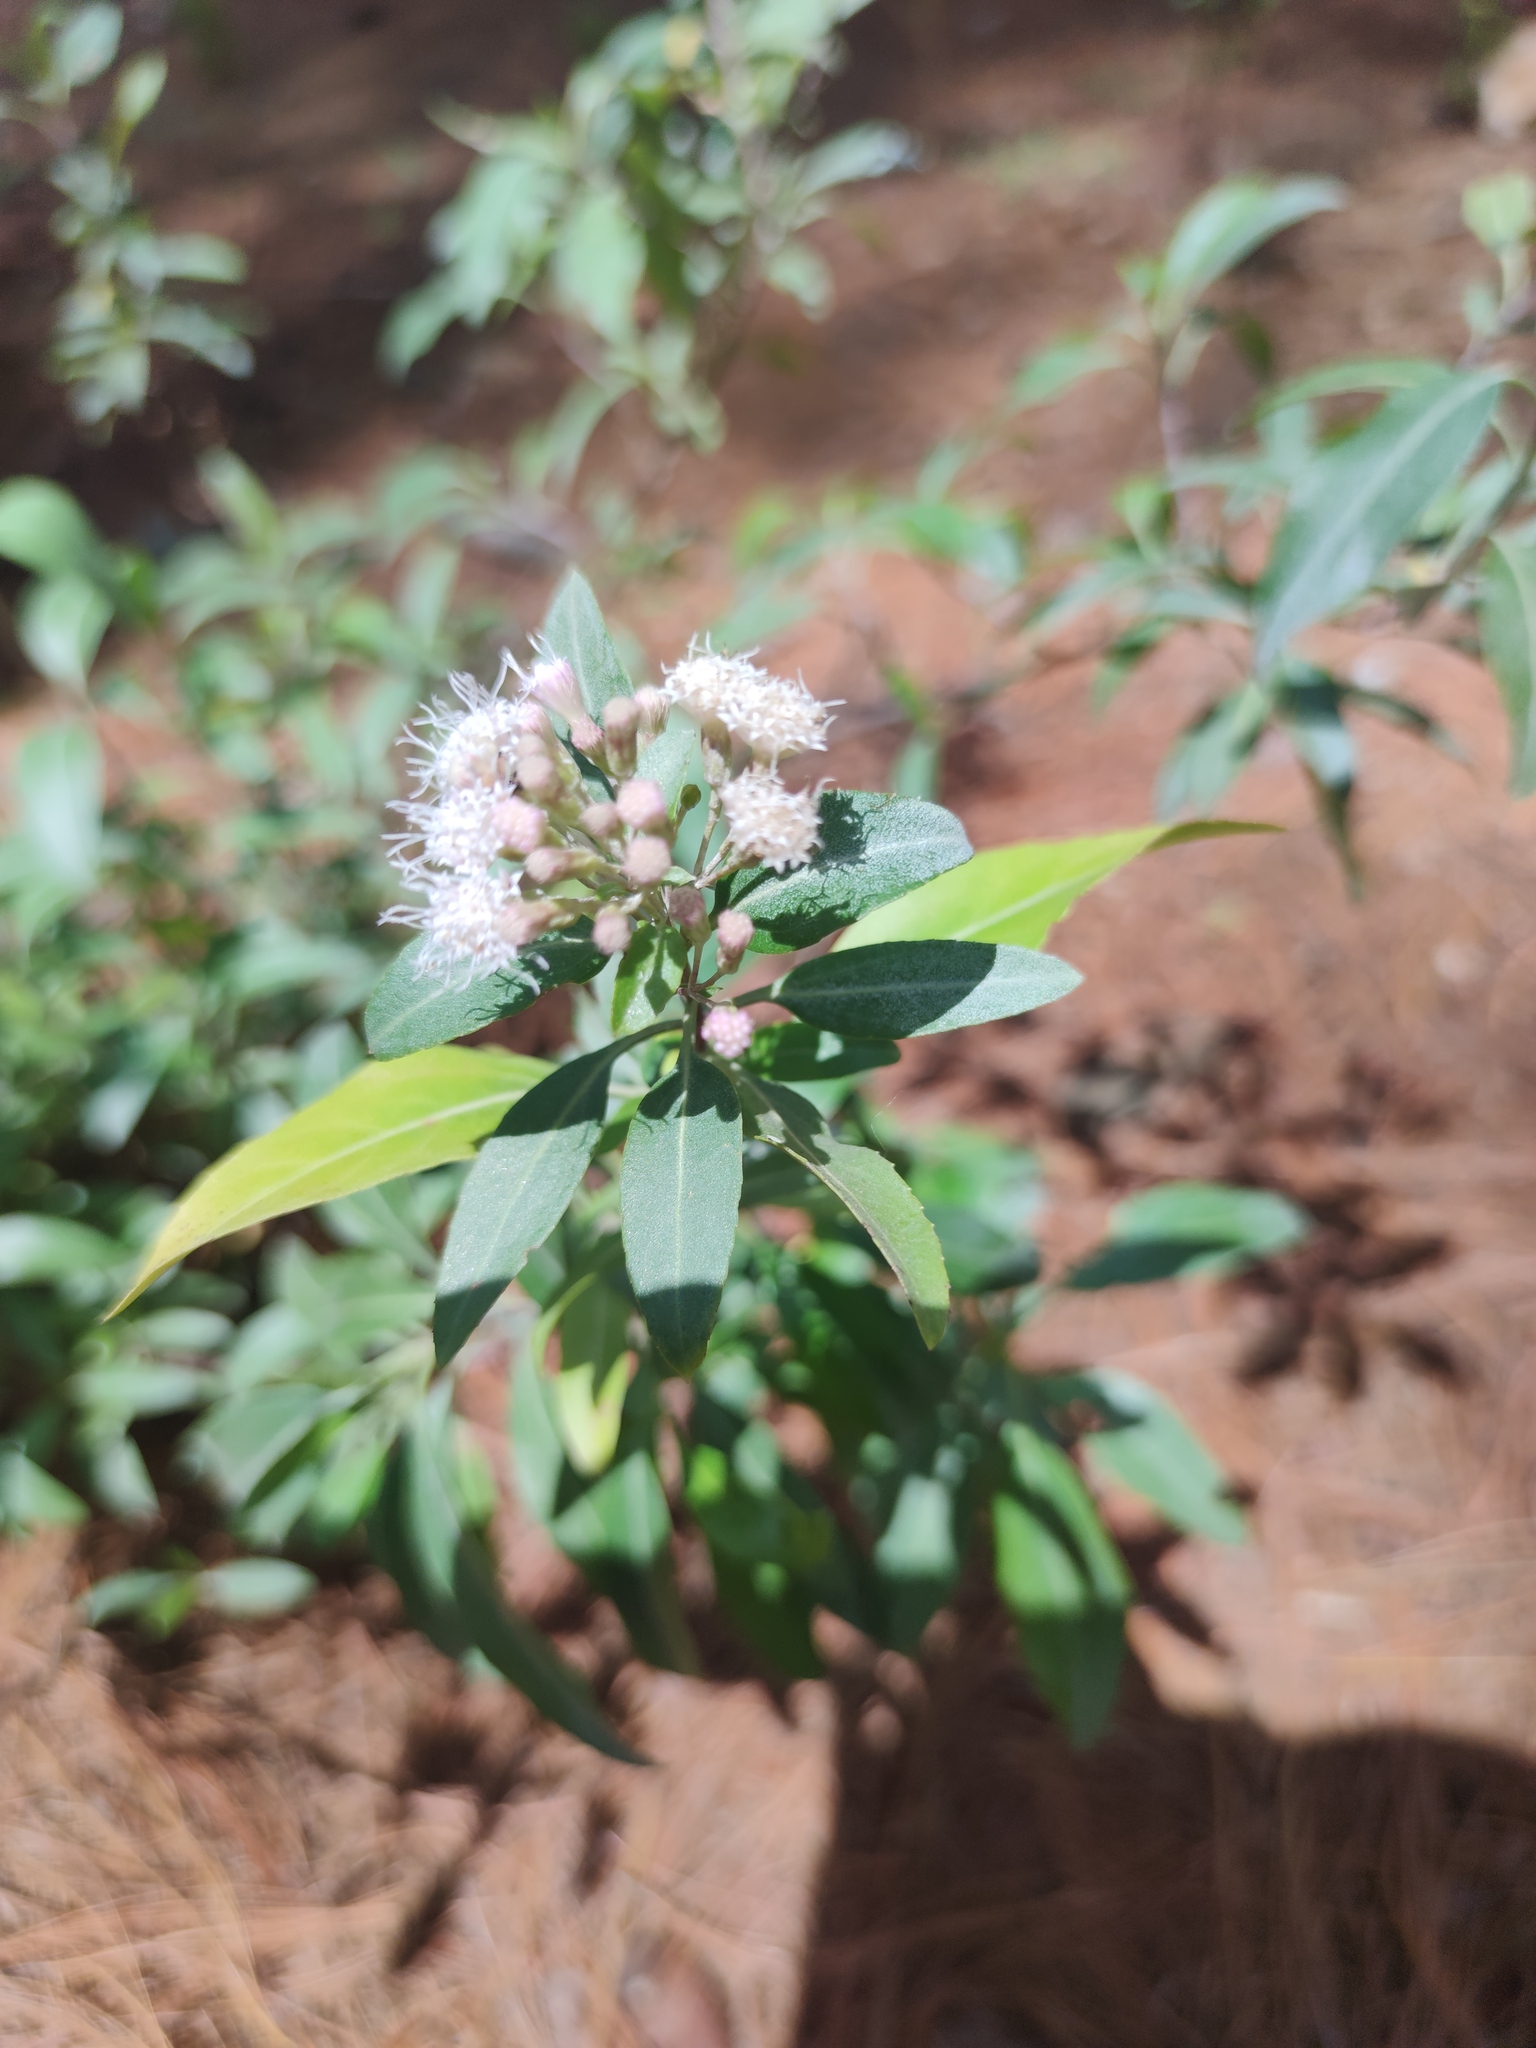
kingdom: Plantae
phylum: Tracheophyta
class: Magnoliopsida
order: Asterales
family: Asteraceae
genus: Ageratina
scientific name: Ageratina glabrata
